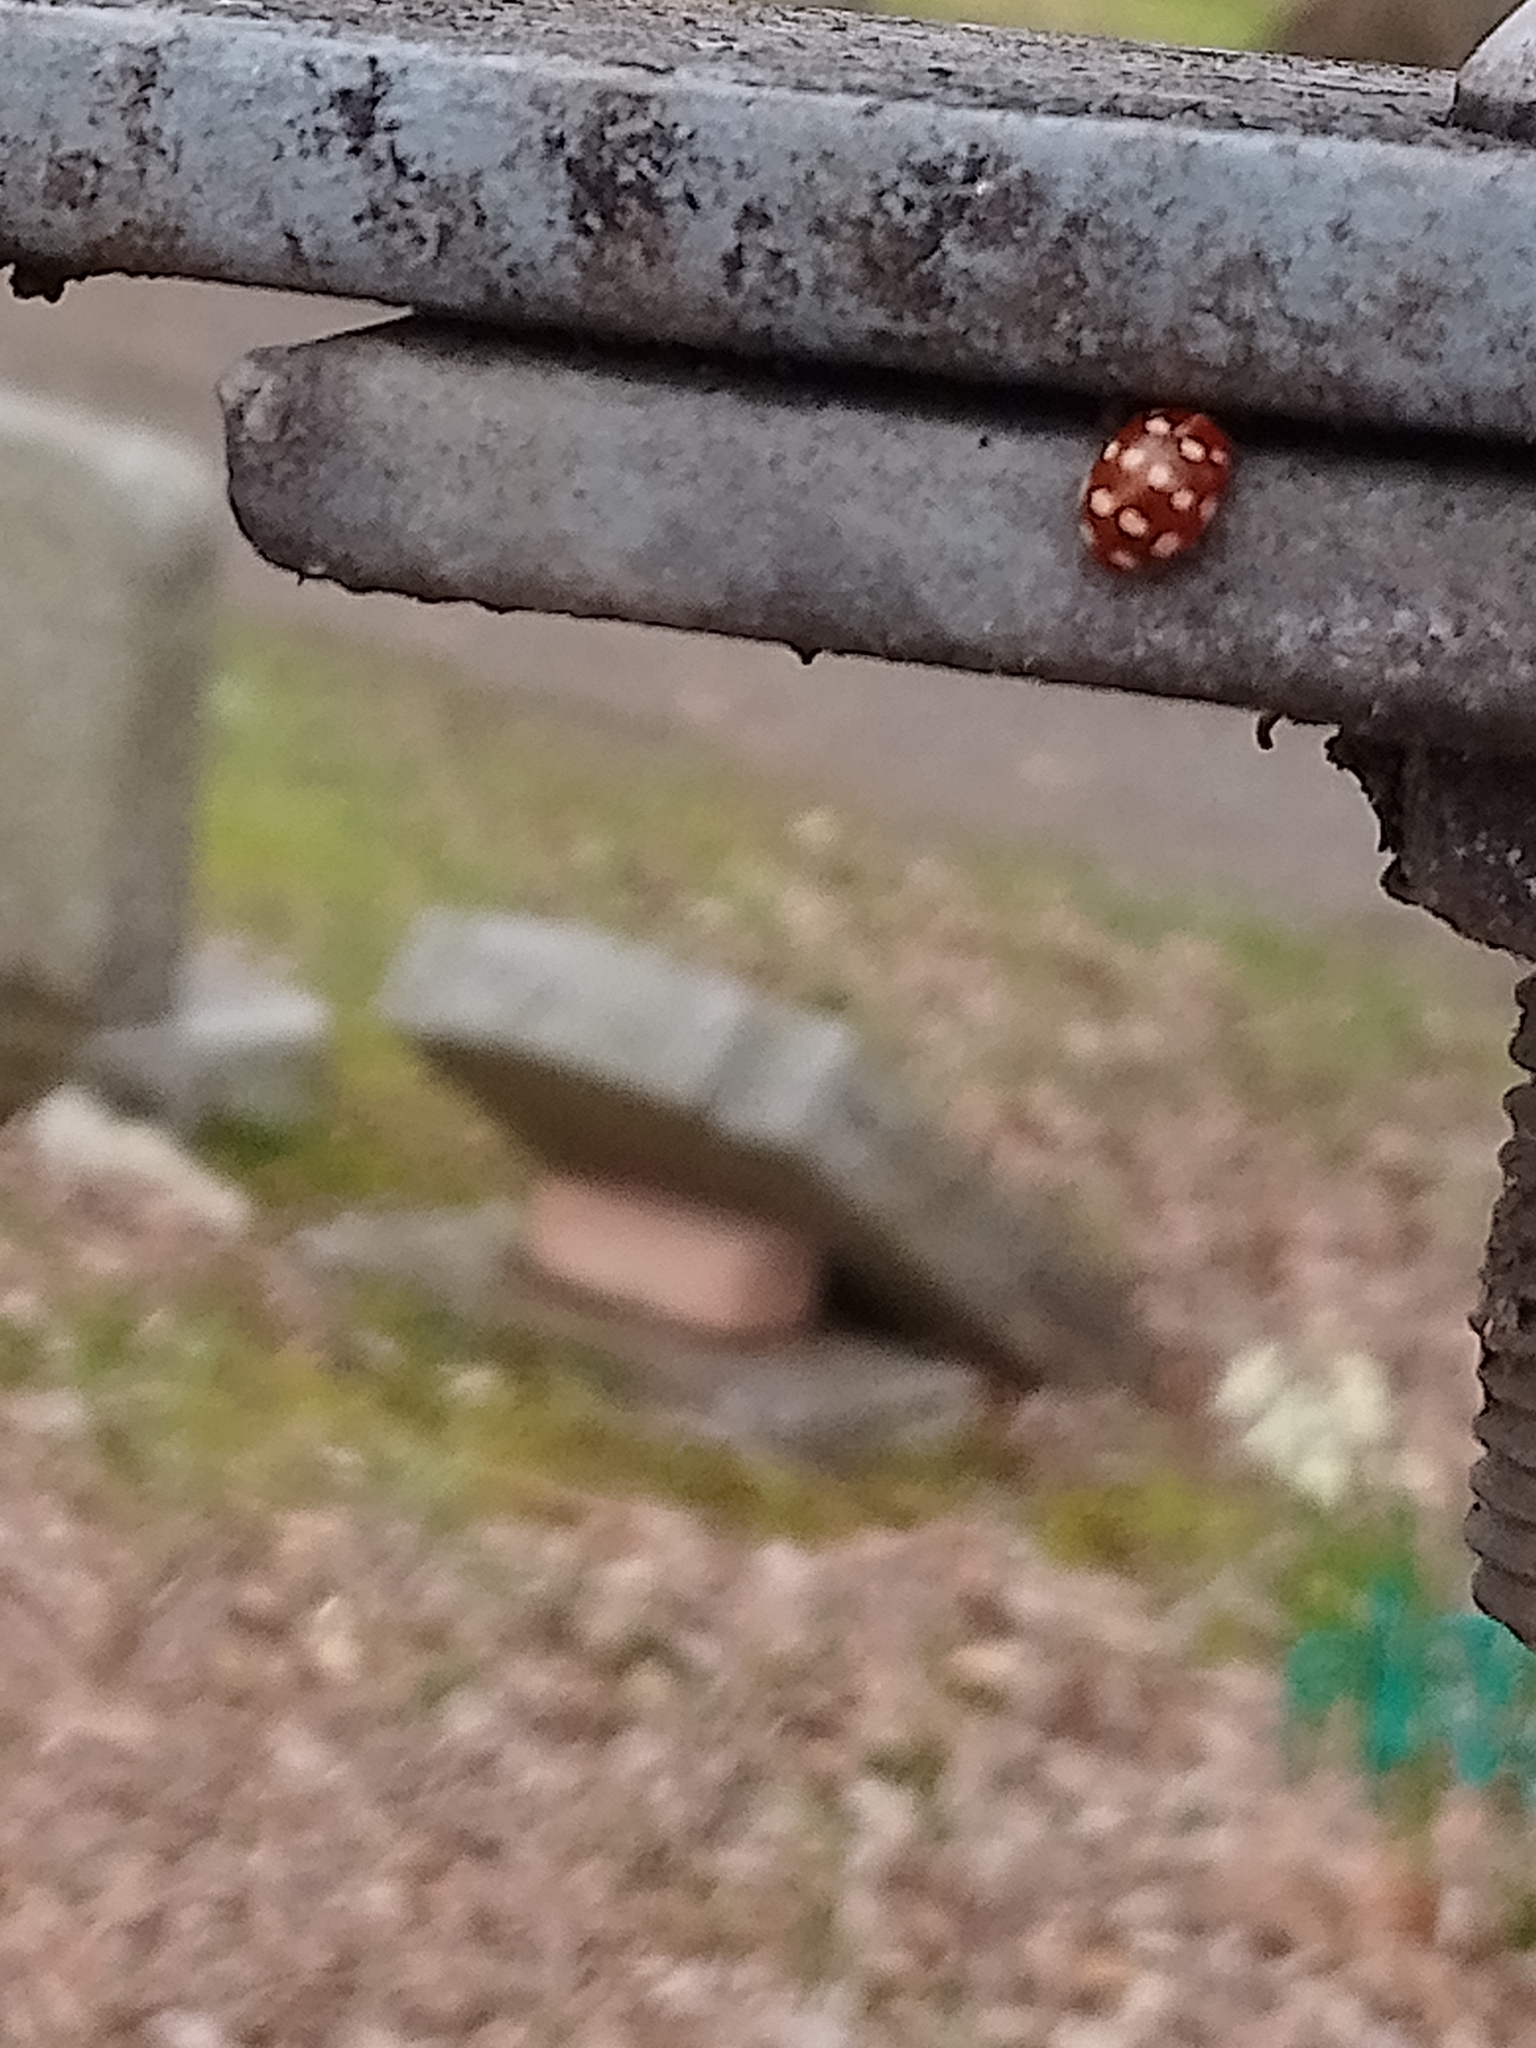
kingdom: Animalia
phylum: Arthropoda
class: Insecta
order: Coleoptera
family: Coccinellidae
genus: Calvia
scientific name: Calvia quatuordecimguttata
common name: Cream-spot ladybird
